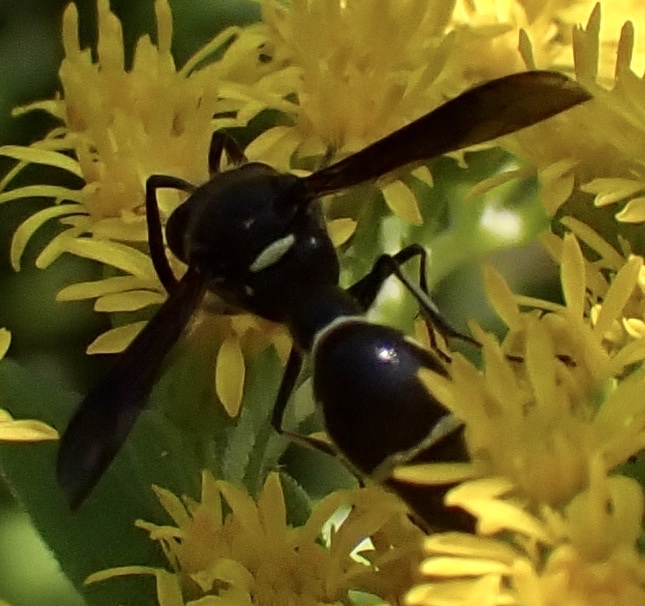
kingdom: Animalia
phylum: Arthropoda
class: Insecta
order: Hymenoptera
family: Vespidae
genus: Eumenes
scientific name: Eumenes fraternus
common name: Fraternal potter wasp
